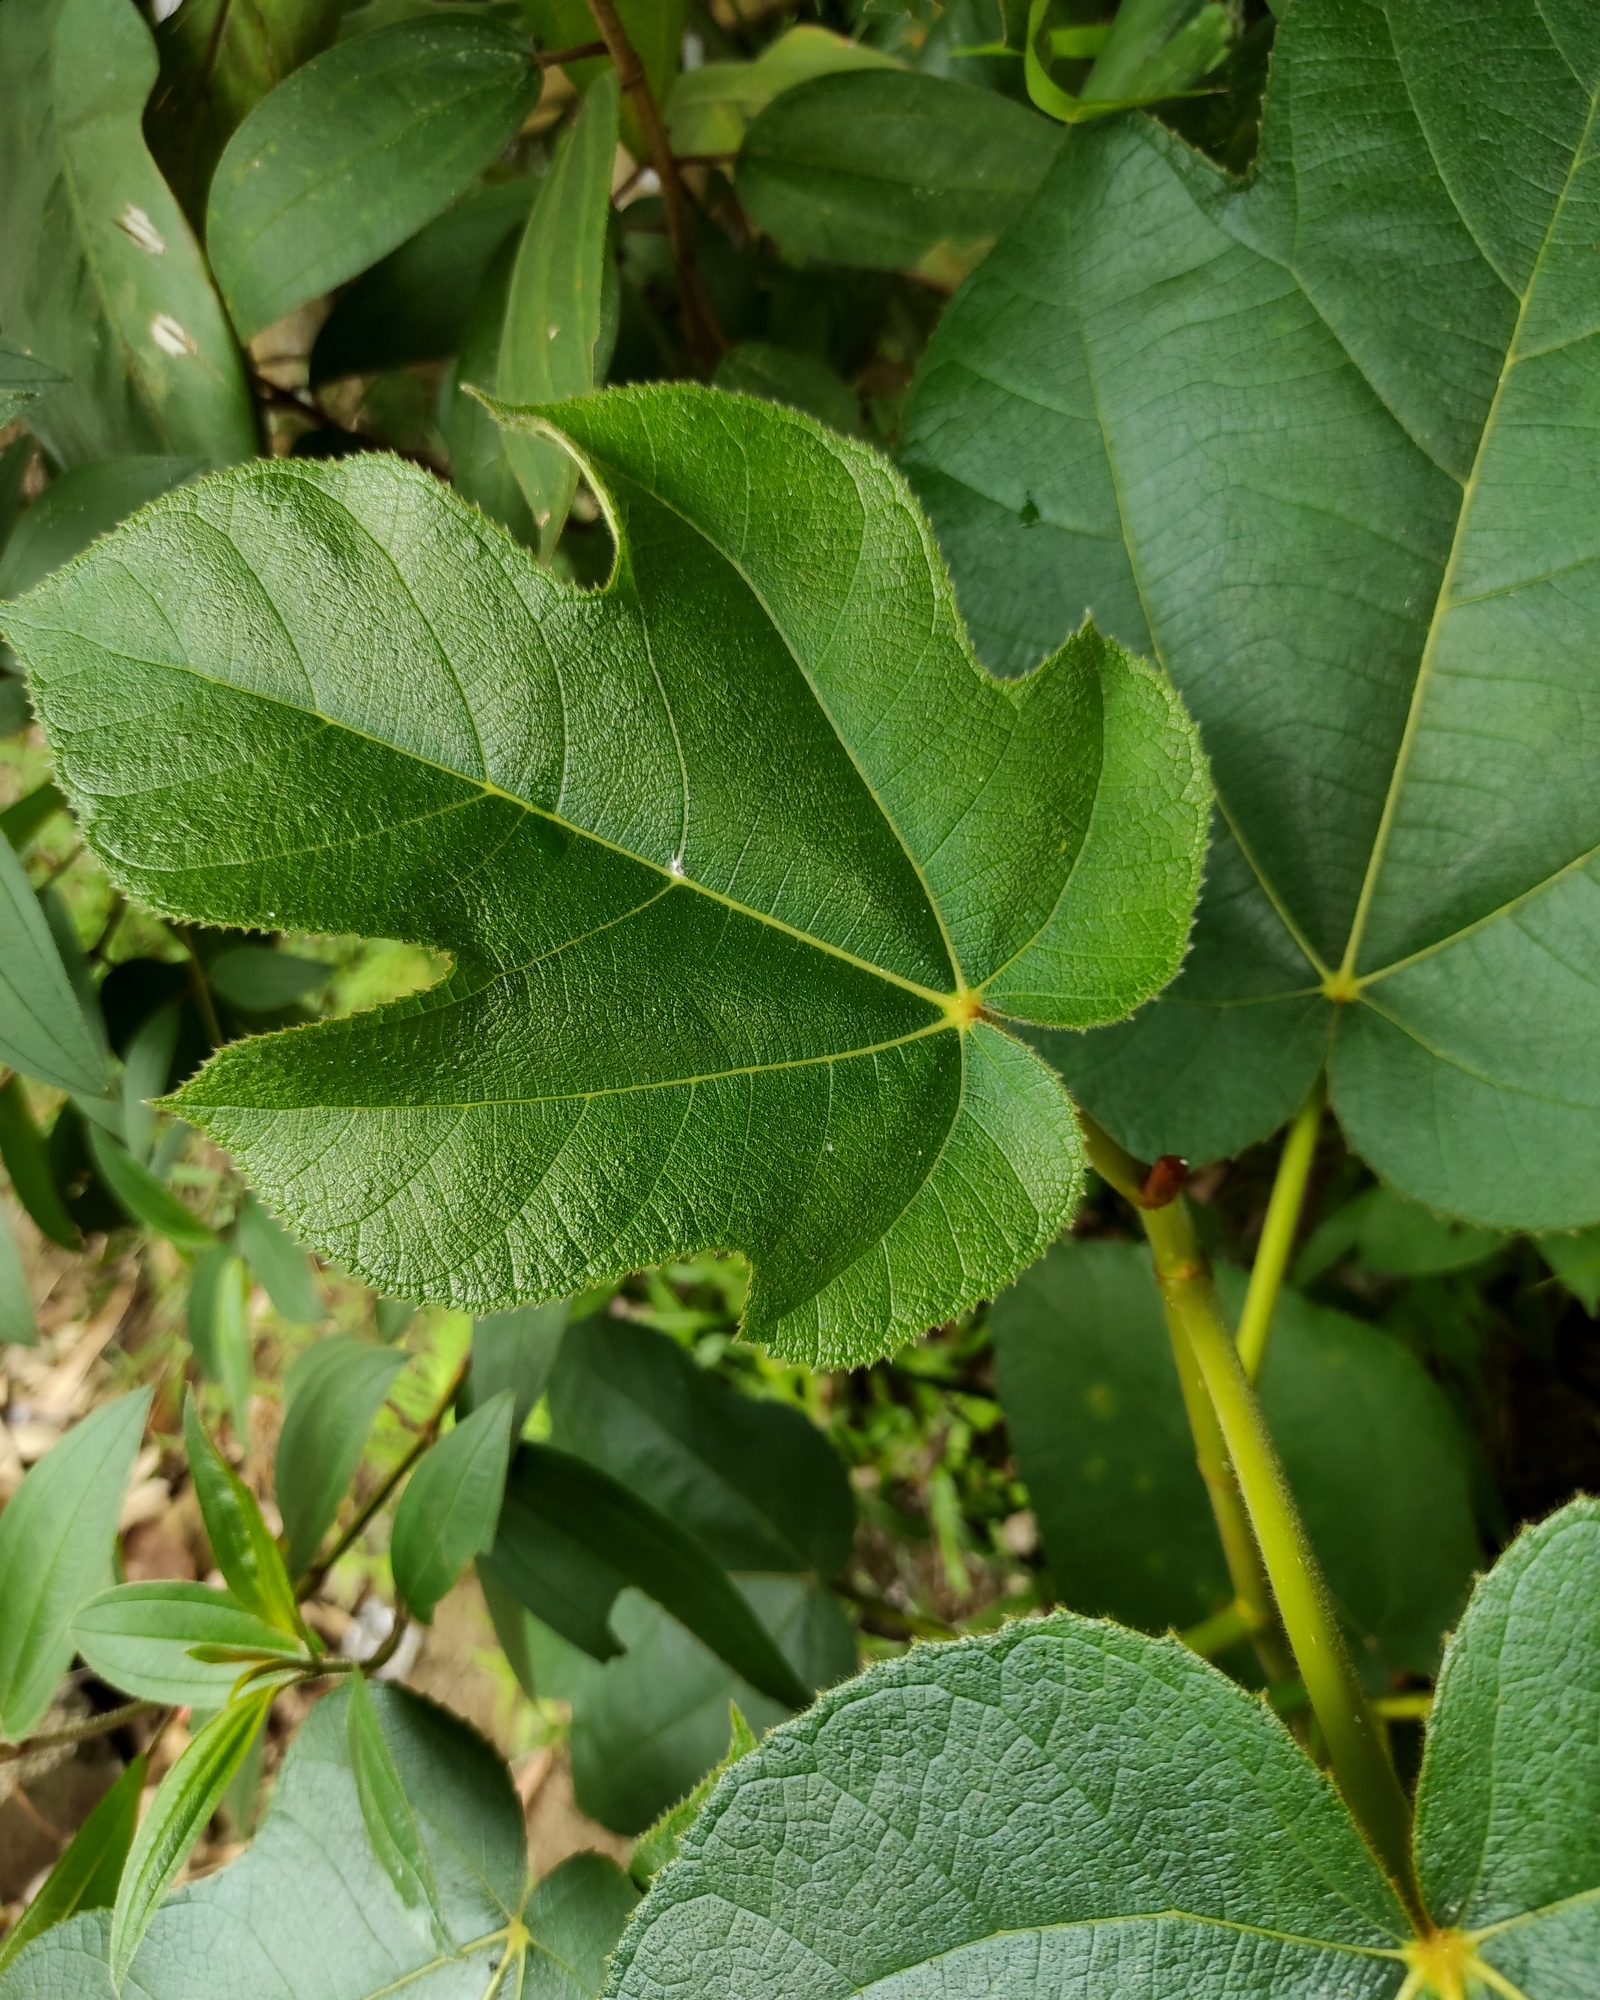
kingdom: Plantae
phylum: Tracheophyta
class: Magnoliopsida
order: Rosales
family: Moraceae
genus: Ficus
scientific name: Ficus fulva
